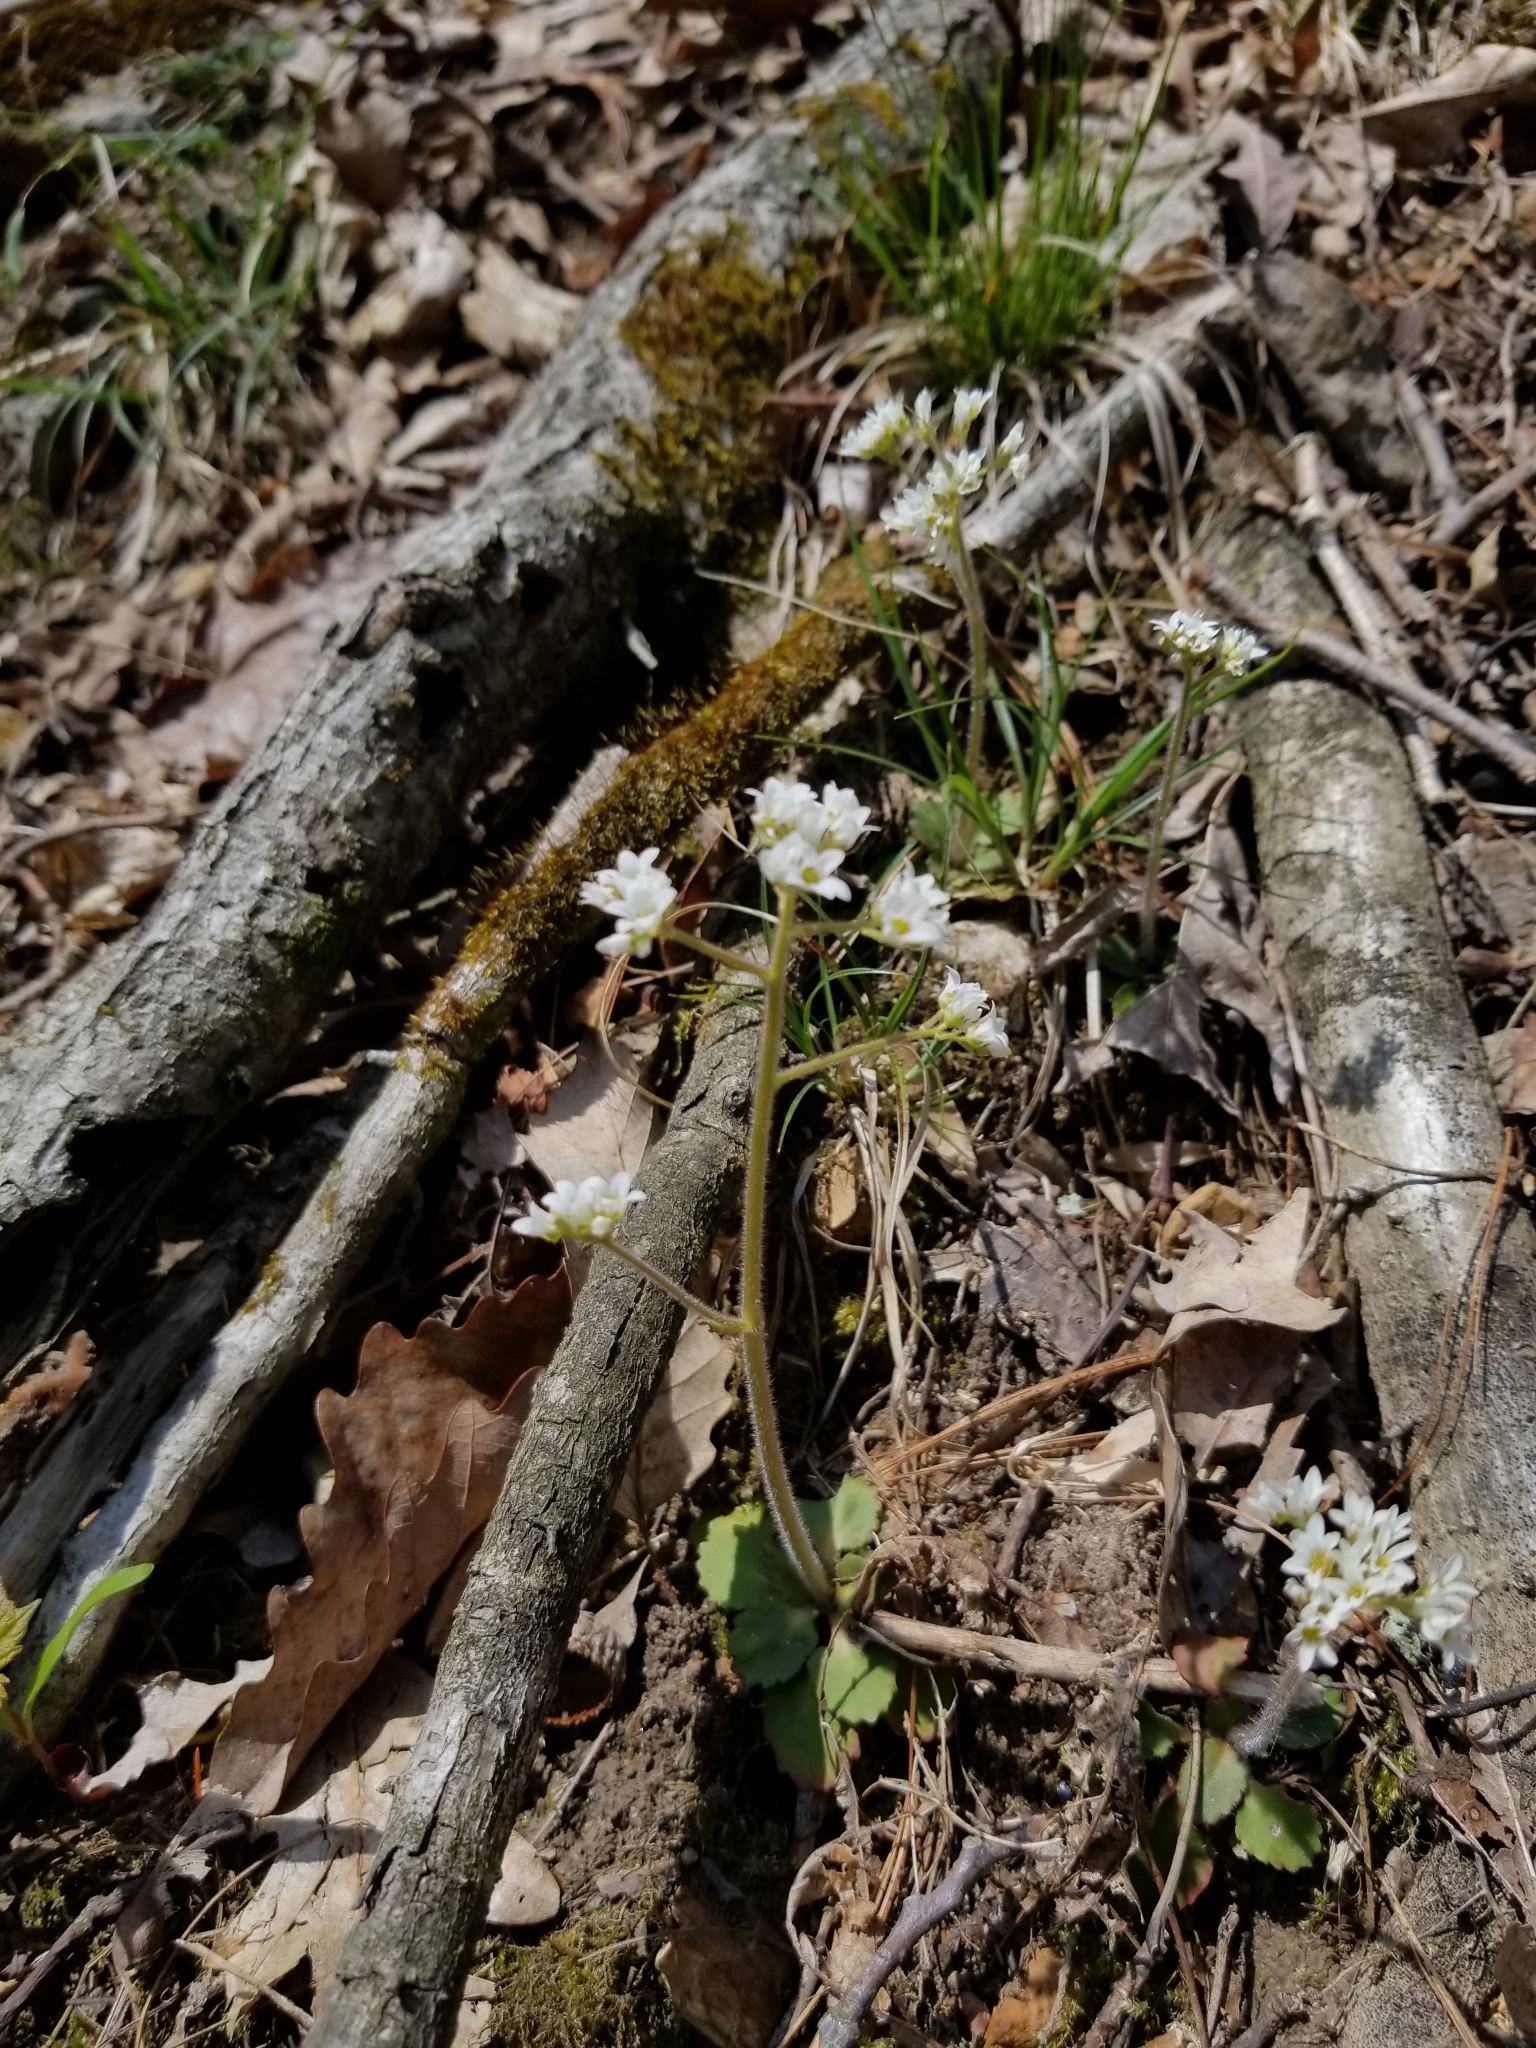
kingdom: Plantae
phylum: Tracheophyta
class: Magnoliopsida
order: Saxifragales
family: Saxifragaceae
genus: Micranthes
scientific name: Micranthes virginiensis
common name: Early saxifrage
